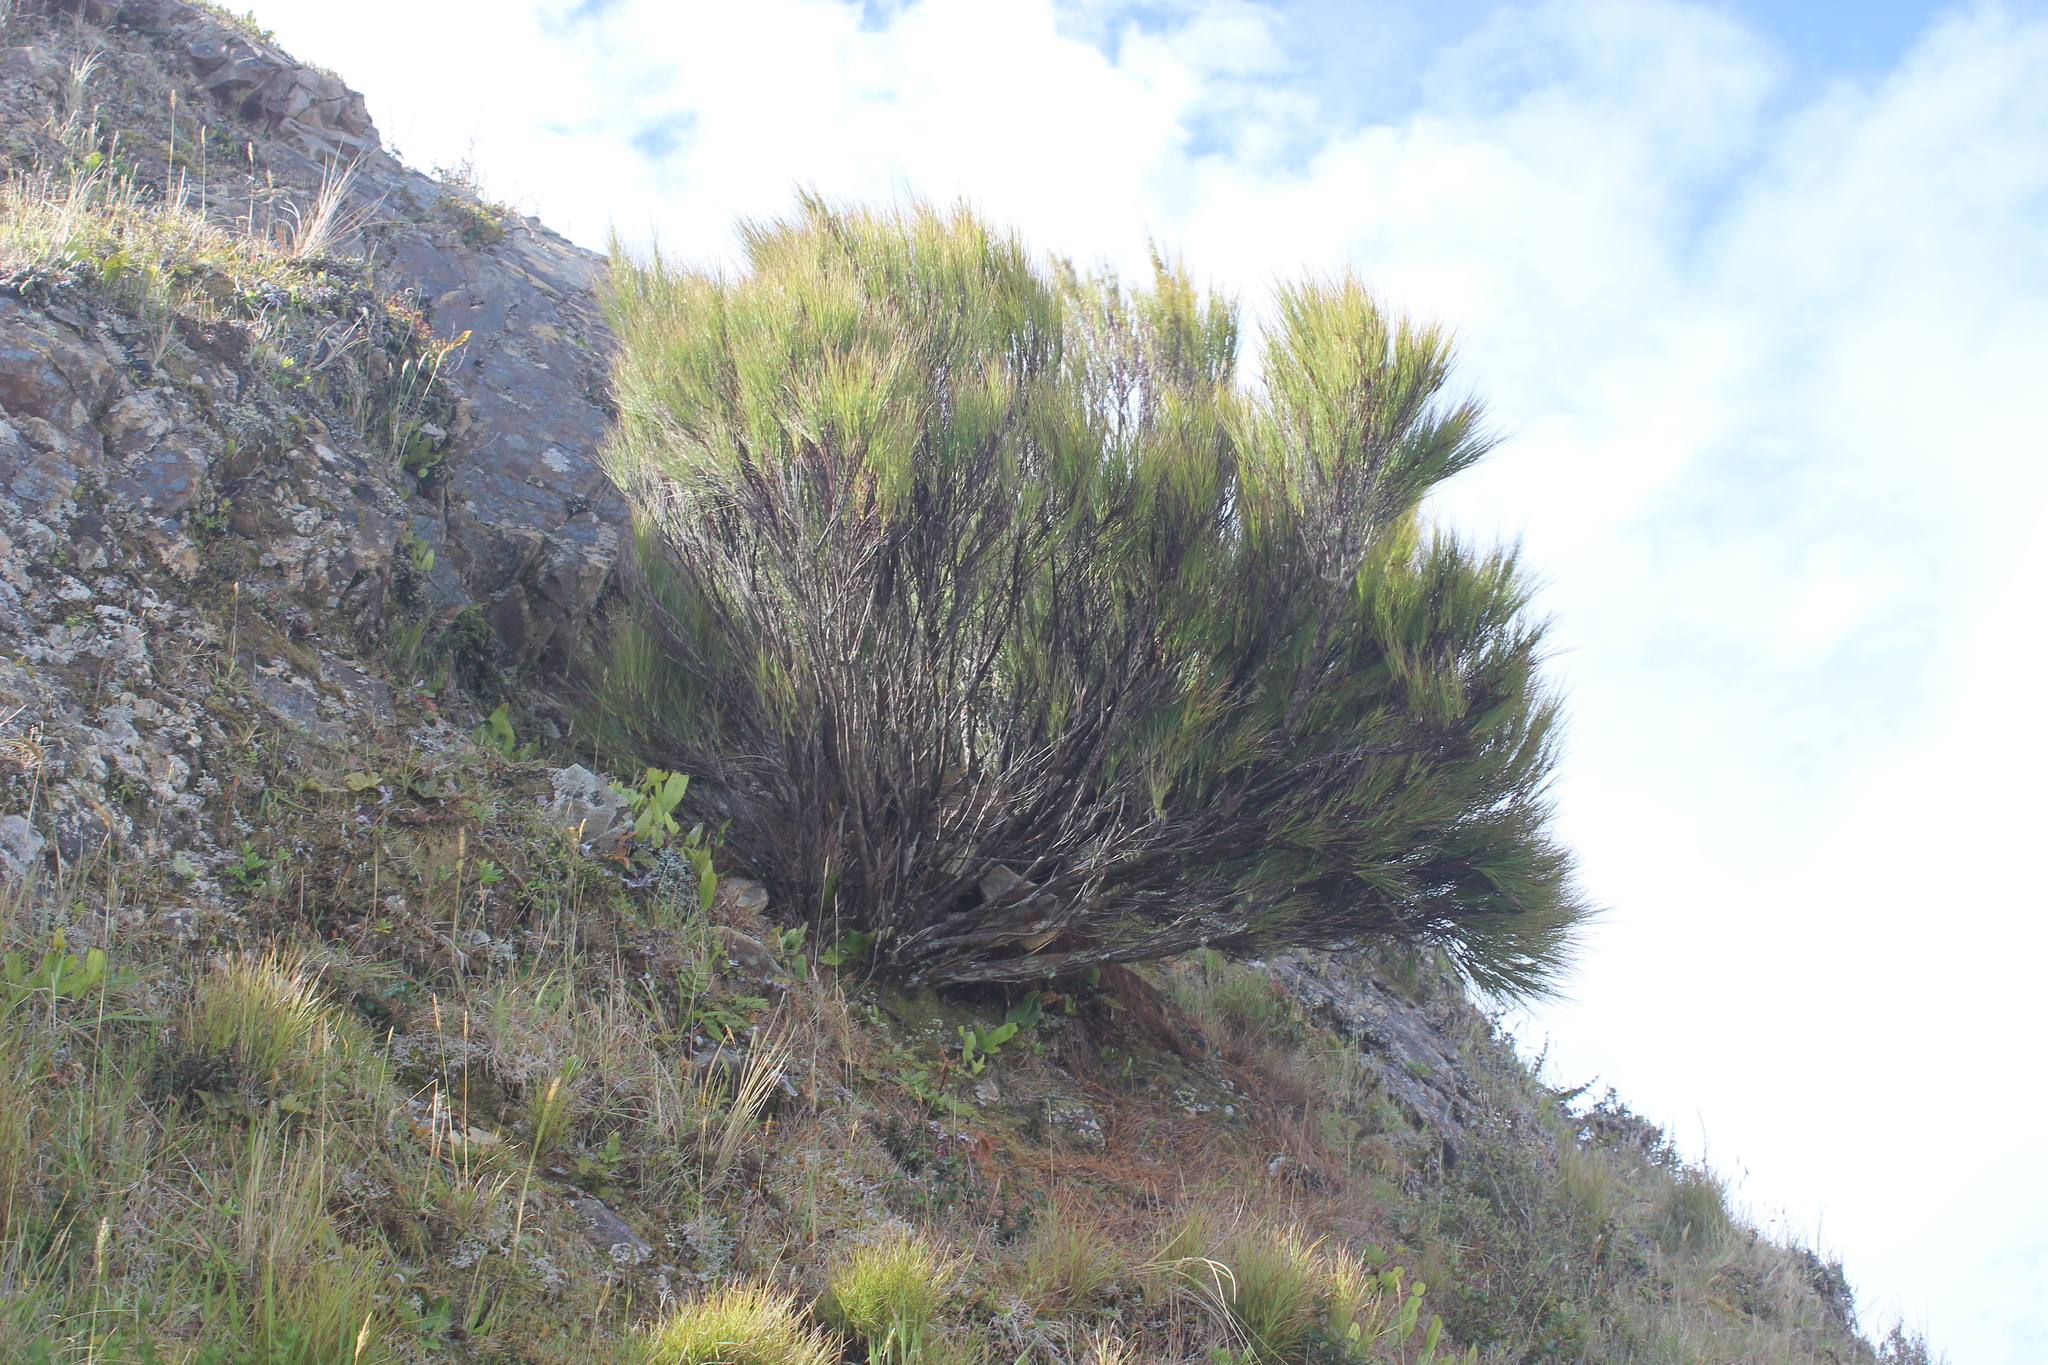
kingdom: Plantae
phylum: Tracheophyta
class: Magnoliopsida
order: Ericales
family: Ericaceae
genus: Dracophyllum
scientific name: Dracophyllum filifolium
